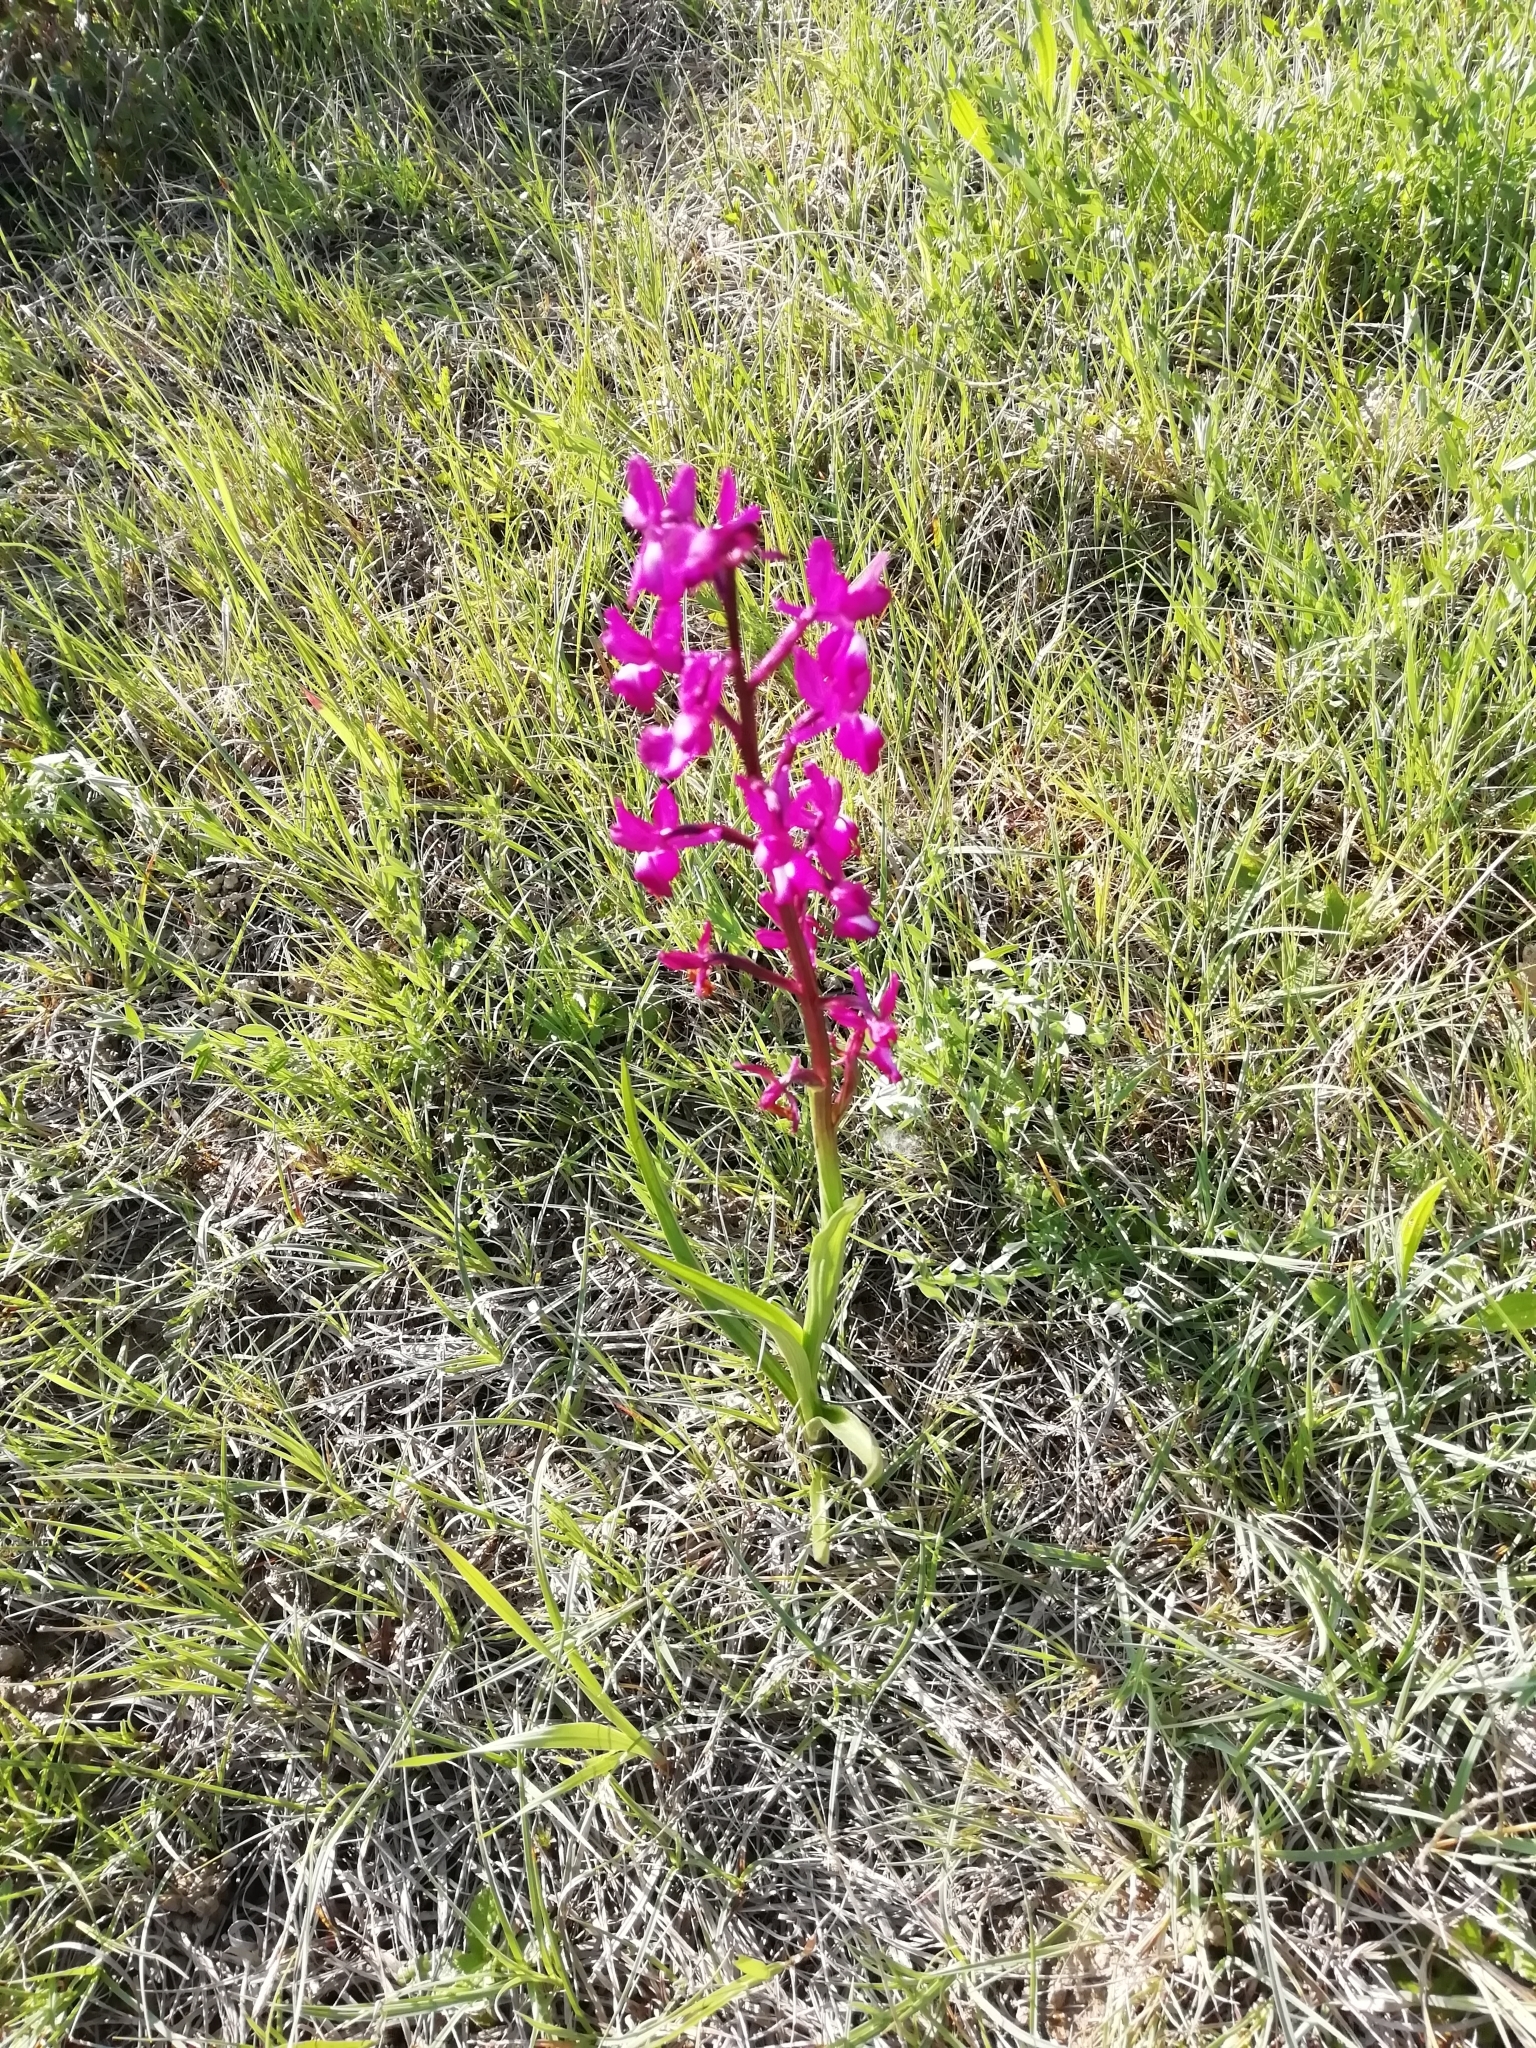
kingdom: Plantae
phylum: Tracheophyta
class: Liliopsida
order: Asparagales
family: Orchidaceae
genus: Anacamptis
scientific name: Anacamptis laxiflora
